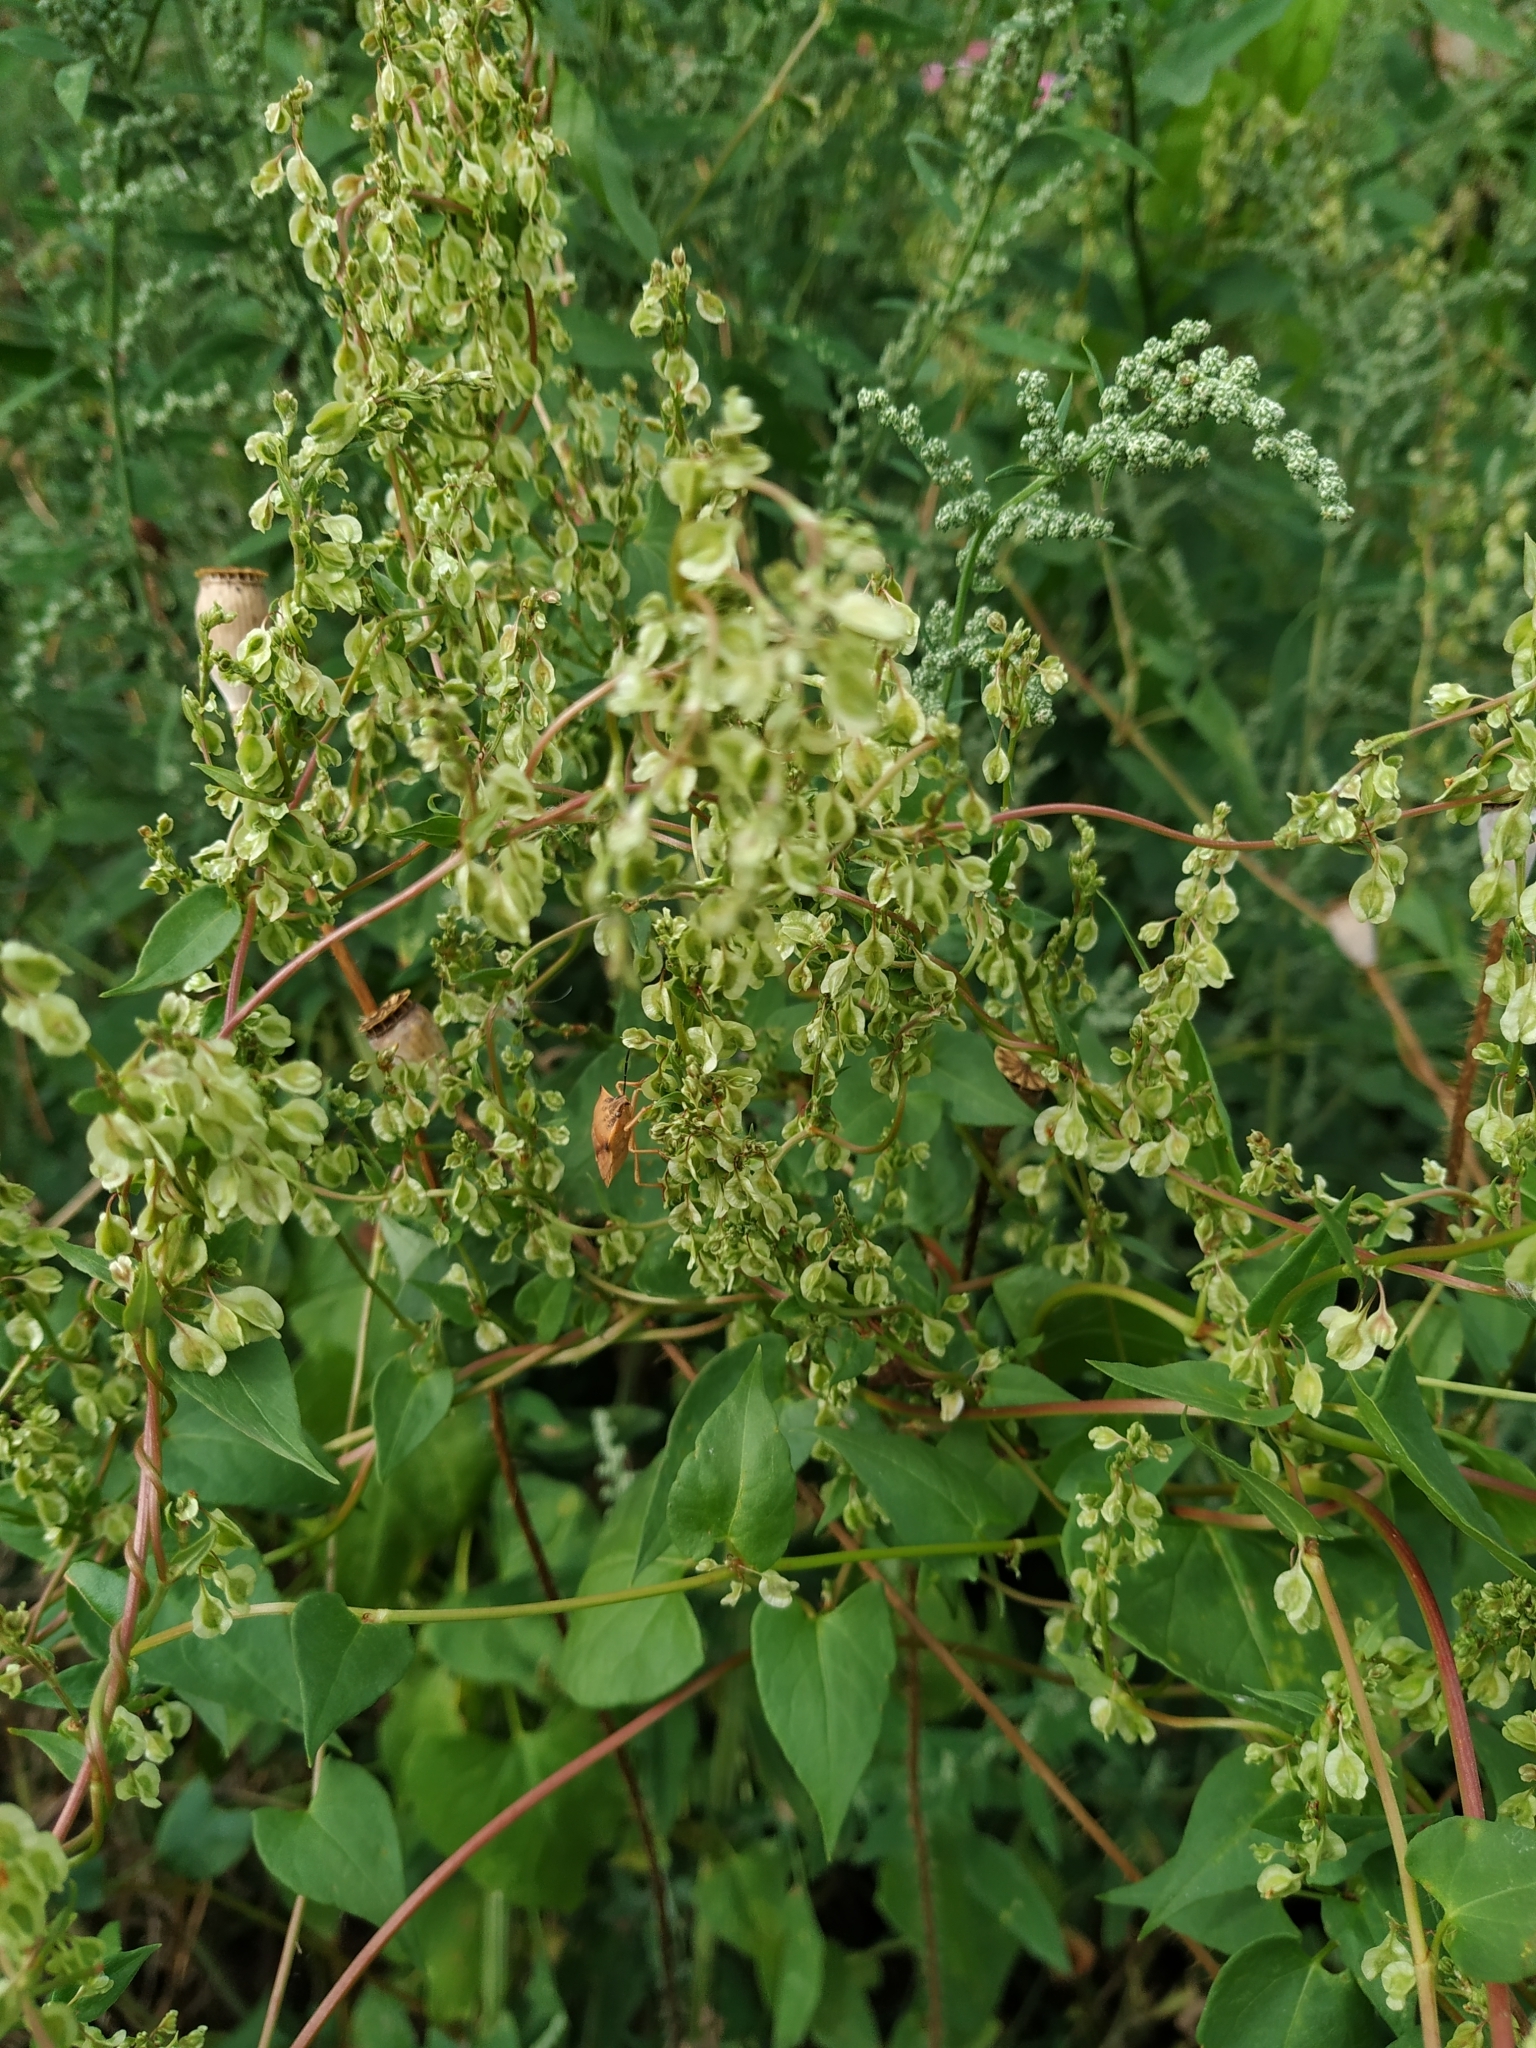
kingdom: Plantae
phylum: Tracheophyta
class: Magnoliopsida
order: Caryophyllales
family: Polygonaceae
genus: Fallopia
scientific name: Fallopia dumetorum
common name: Copse-bindweed
